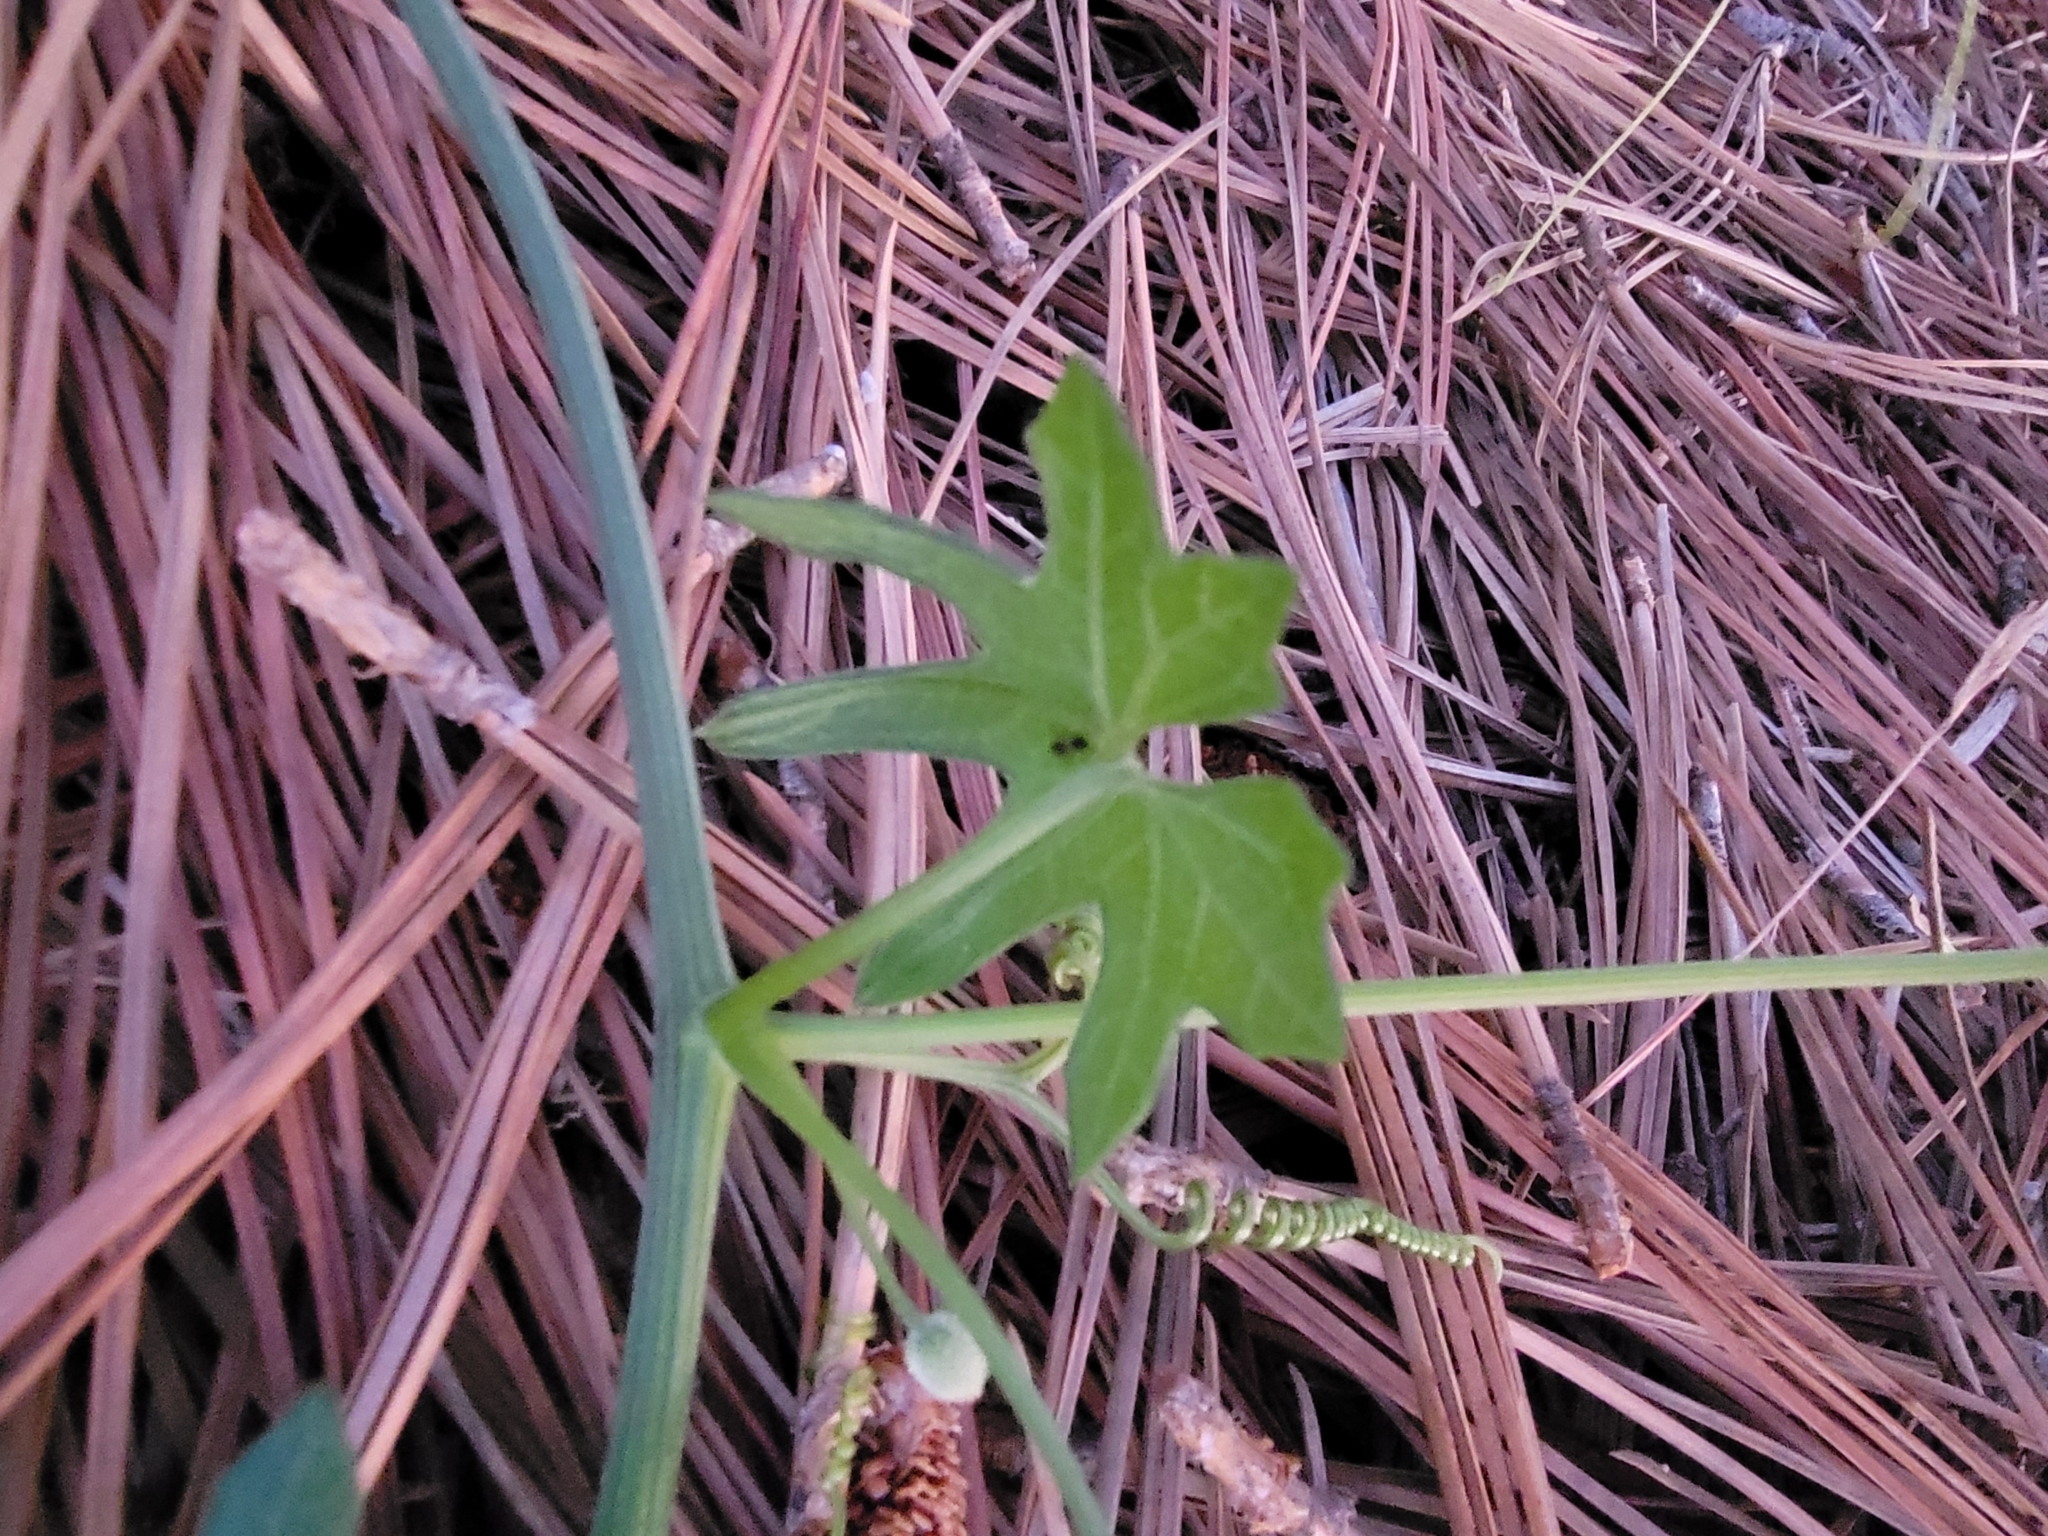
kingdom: Plantae
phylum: Tracheophyta
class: Magnoliopsida
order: Cucurbitales
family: Cucurbitaceae
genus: Marah
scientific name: Marah macrocarpa
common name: Cucamonga manroot
